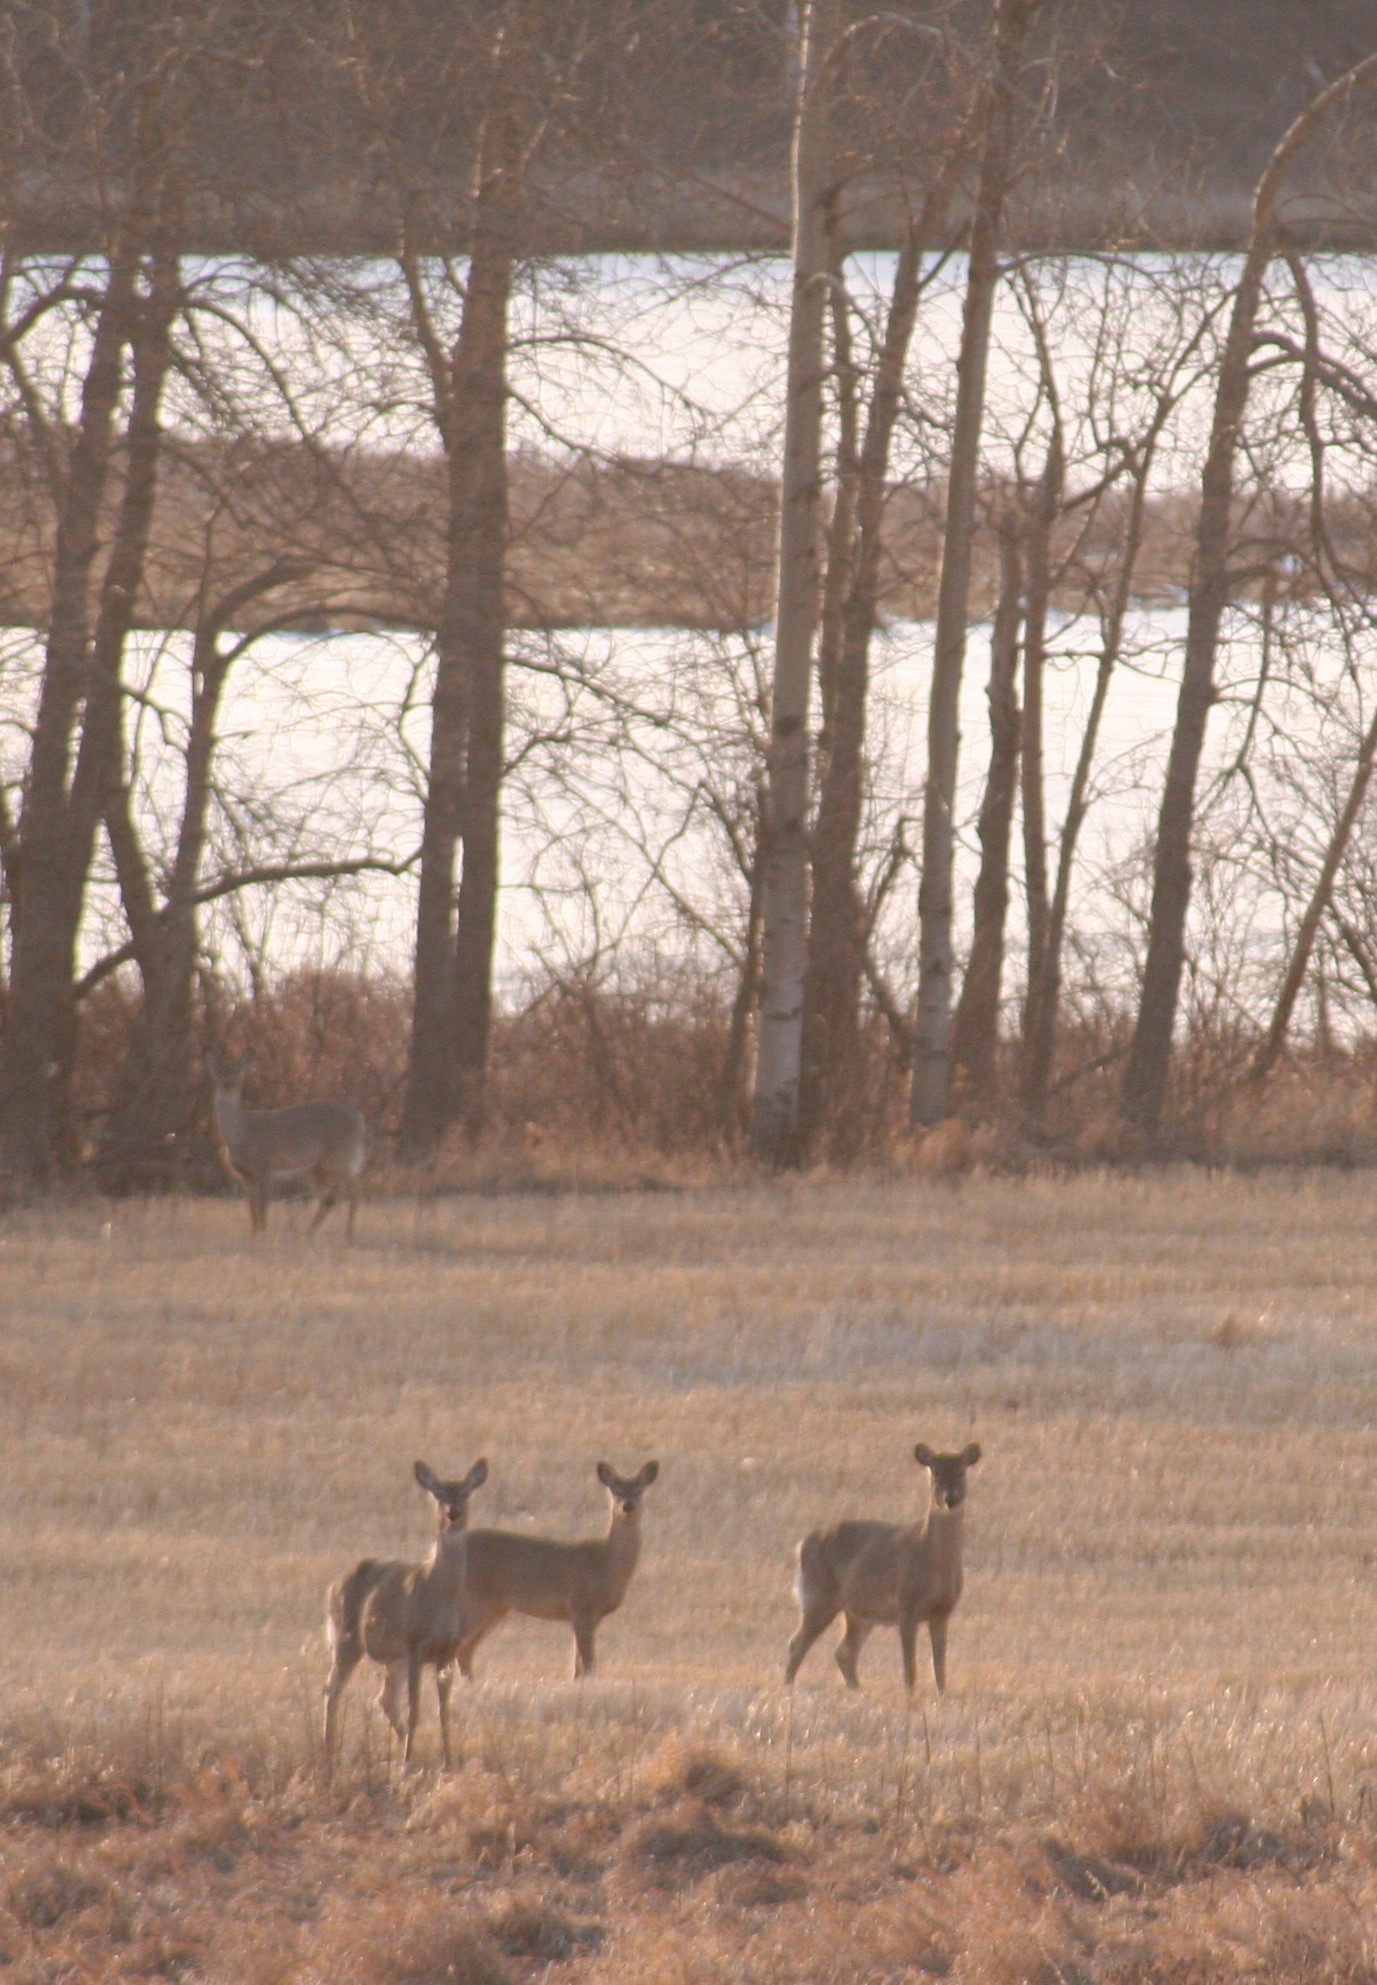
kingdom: Animalia
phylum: Chordata
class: Mammalia
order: Artiodactyla
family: Cervidae
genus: Odocoileus
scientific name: Odocoileus virginianus
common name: White-tailed deer
